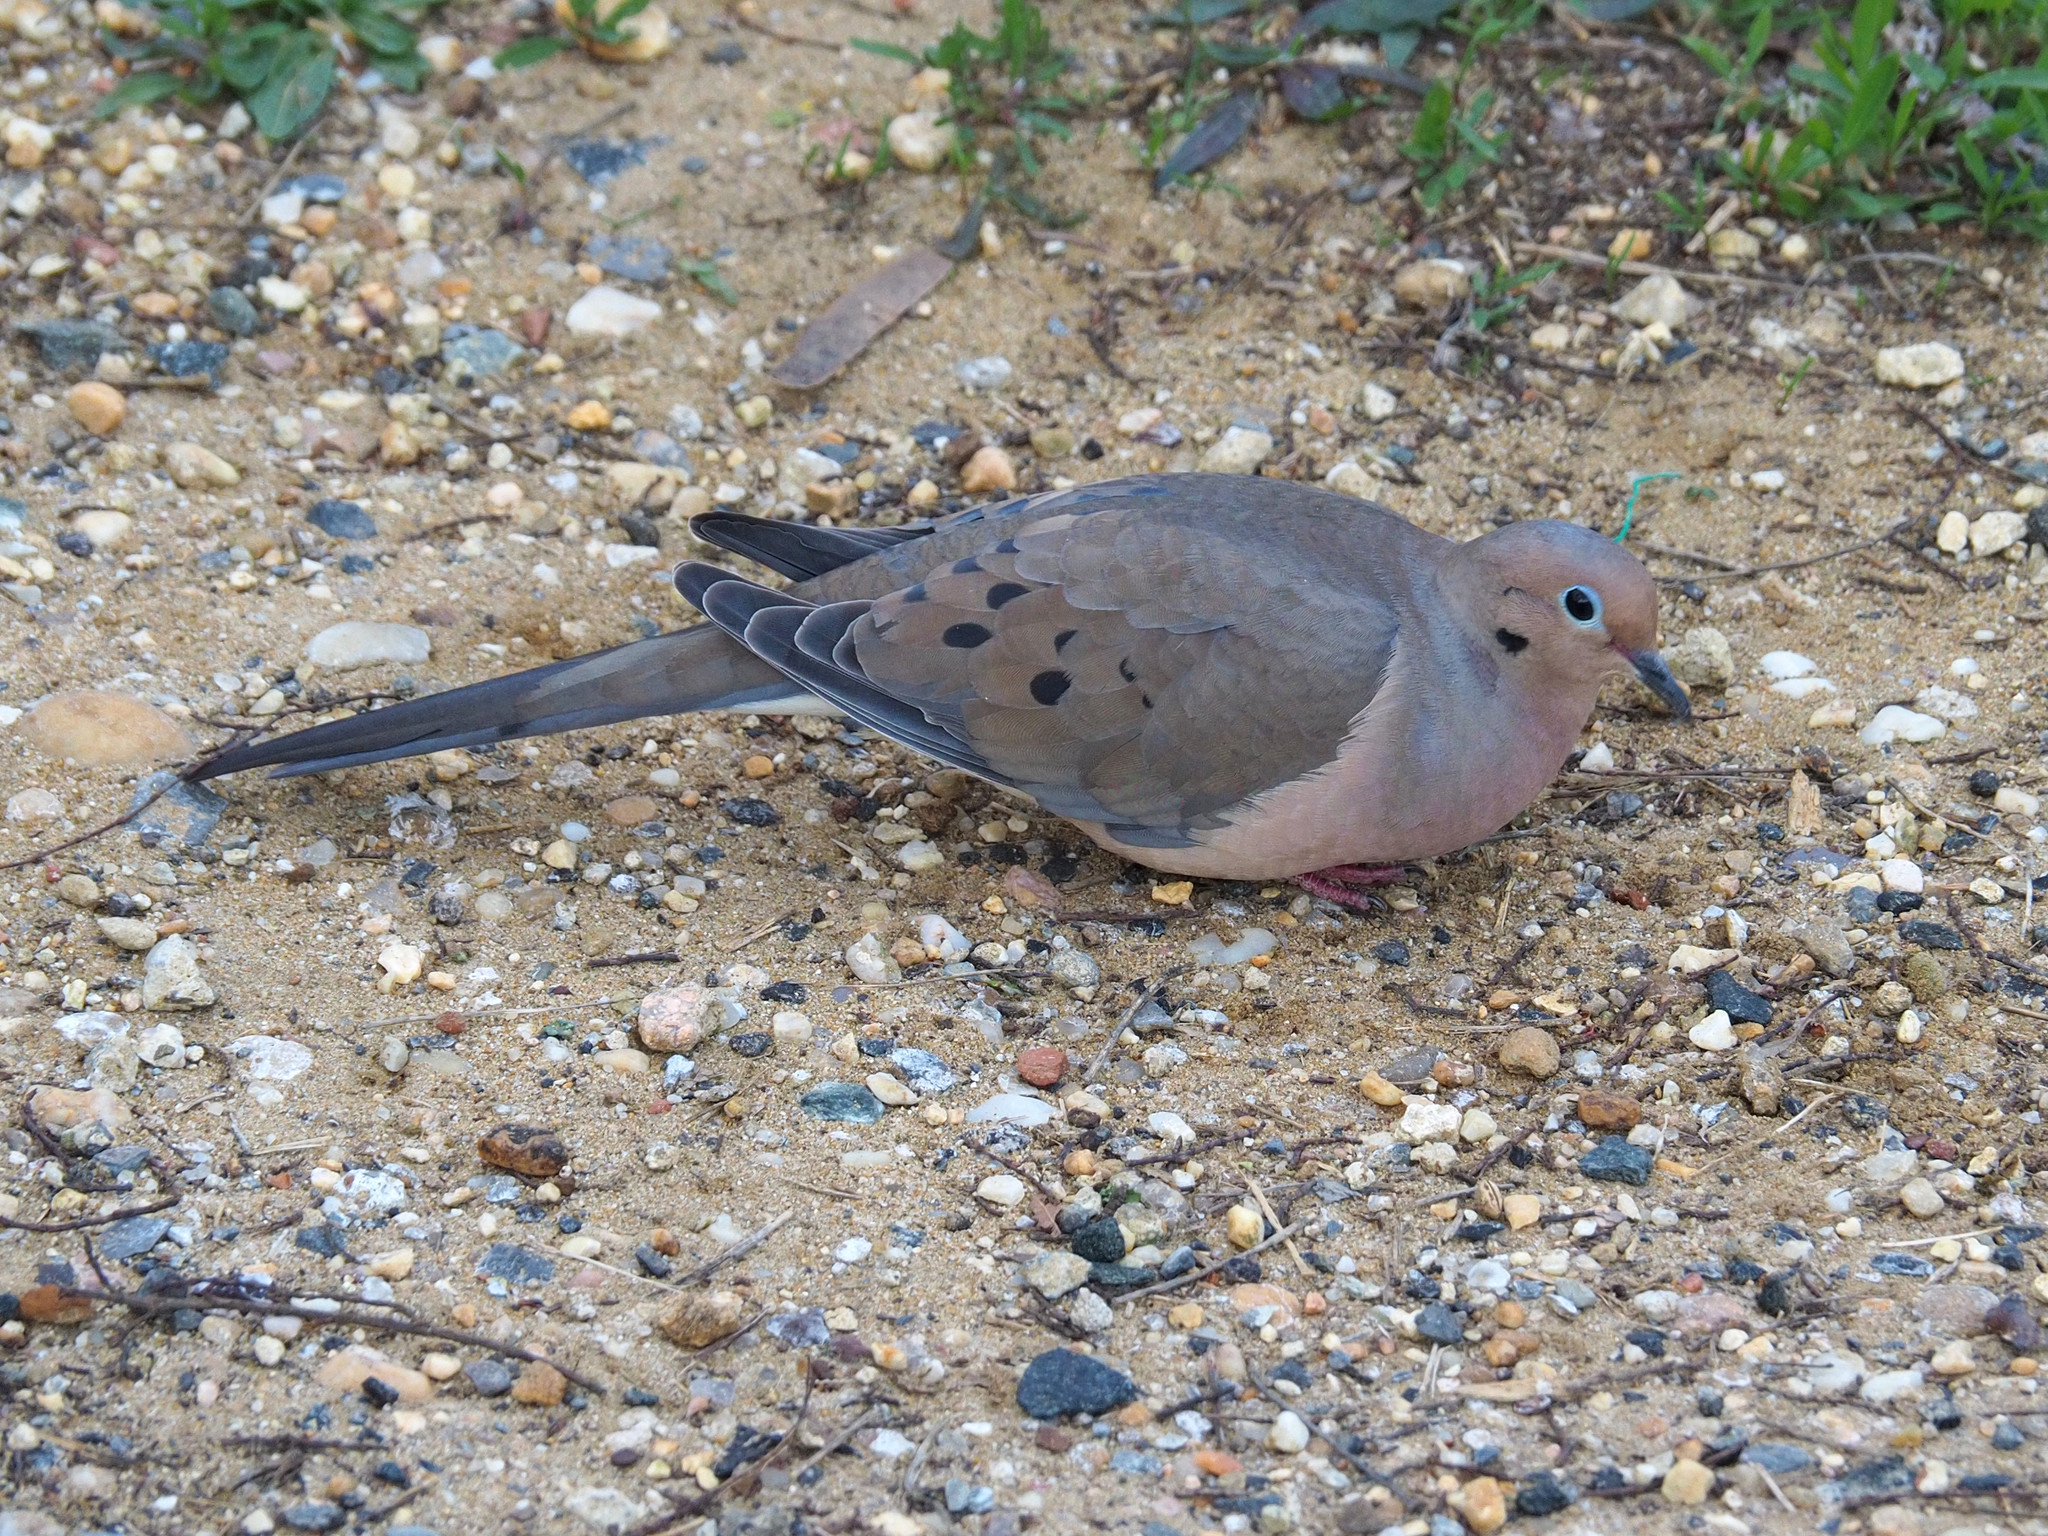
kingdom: Animalia
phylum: Chordata
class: Aves
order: Columbiformes
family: Columbidae
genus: Zenaida
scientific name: Zenaida macroura
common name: Mourning dove
